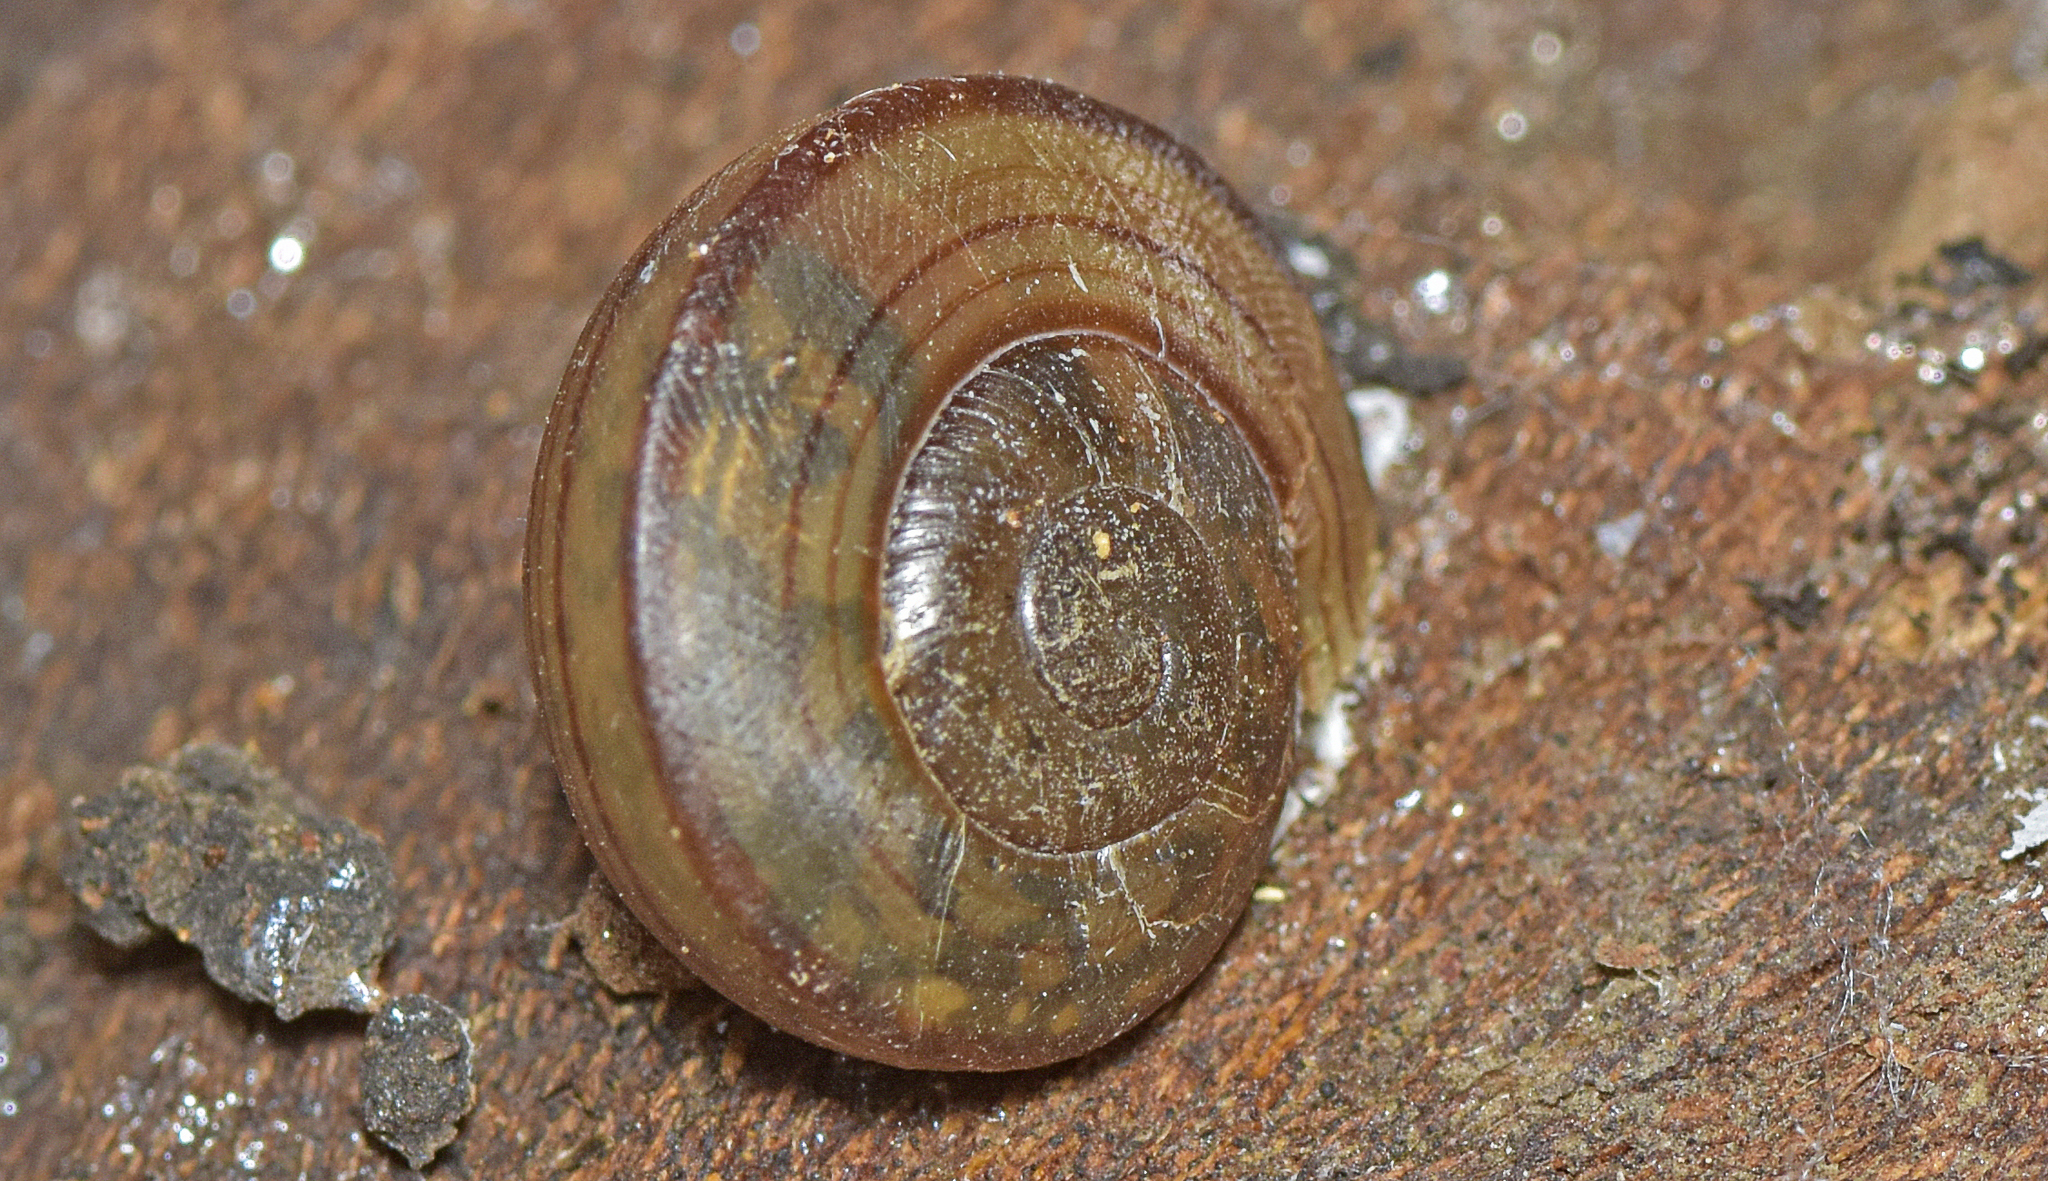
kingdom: Animalia
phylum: Mollusca
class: Gastropoda
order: Stylommatophora
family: Camaenidae
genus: Sphaerospira
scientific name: Sphaerospira fraseri
